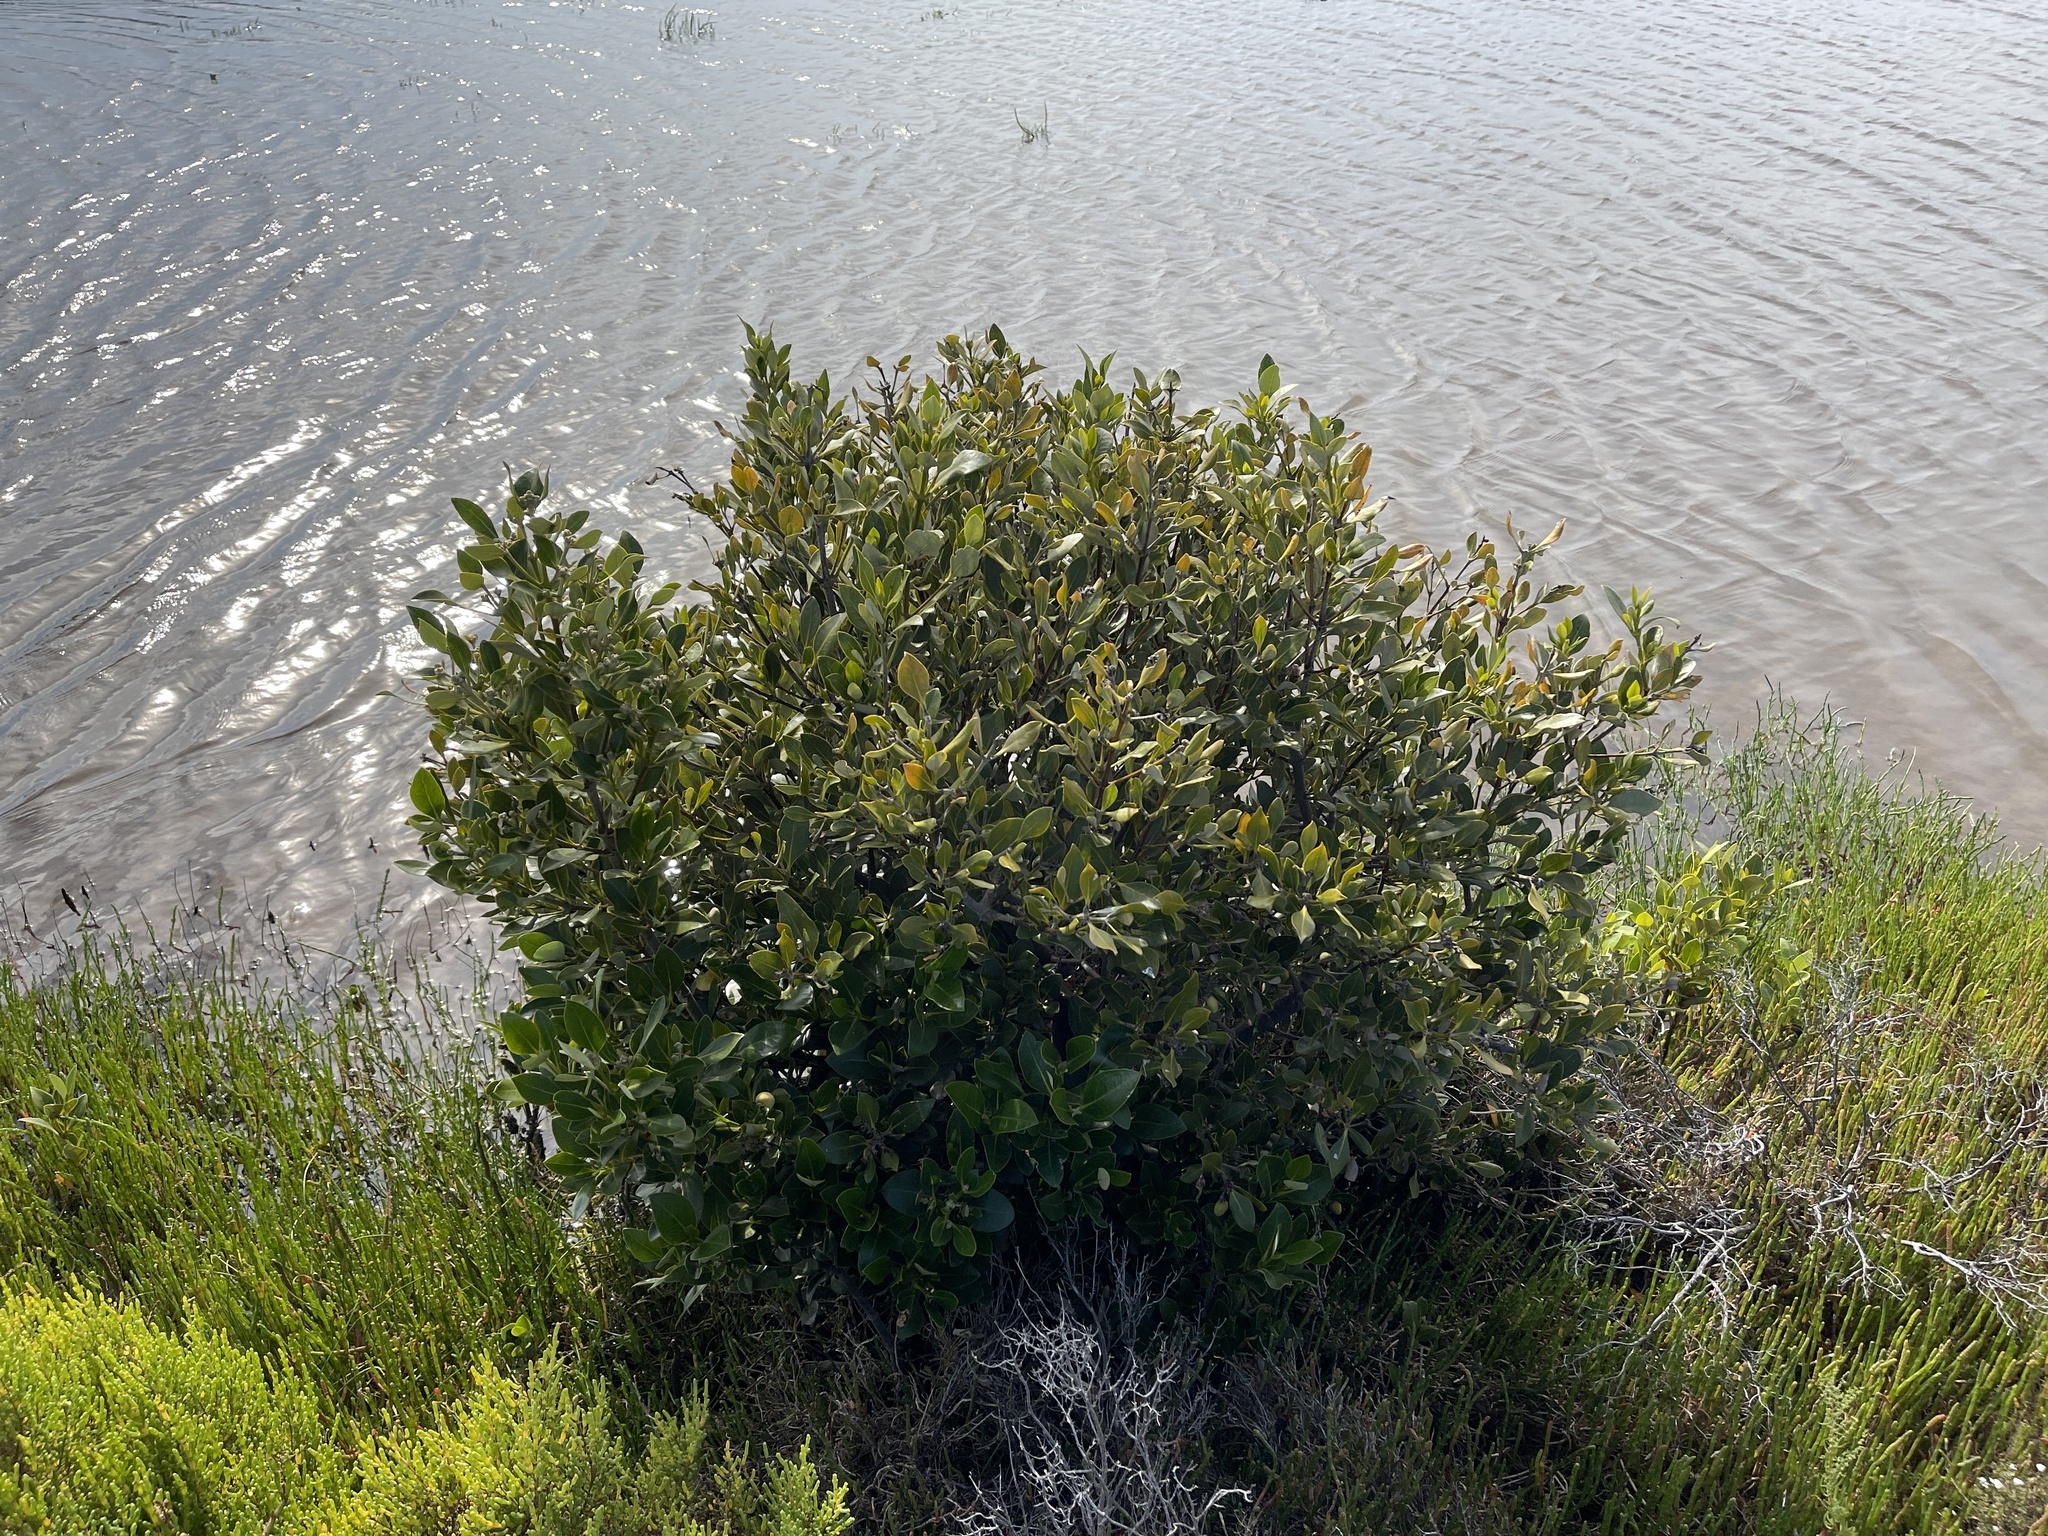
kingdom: Plantae
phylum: Tracheophyta
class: Magnoliopsida
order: Lamiales
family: Acanthaceae
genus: Avicennia
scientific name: Avicennia marina
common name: Gray mangrove
